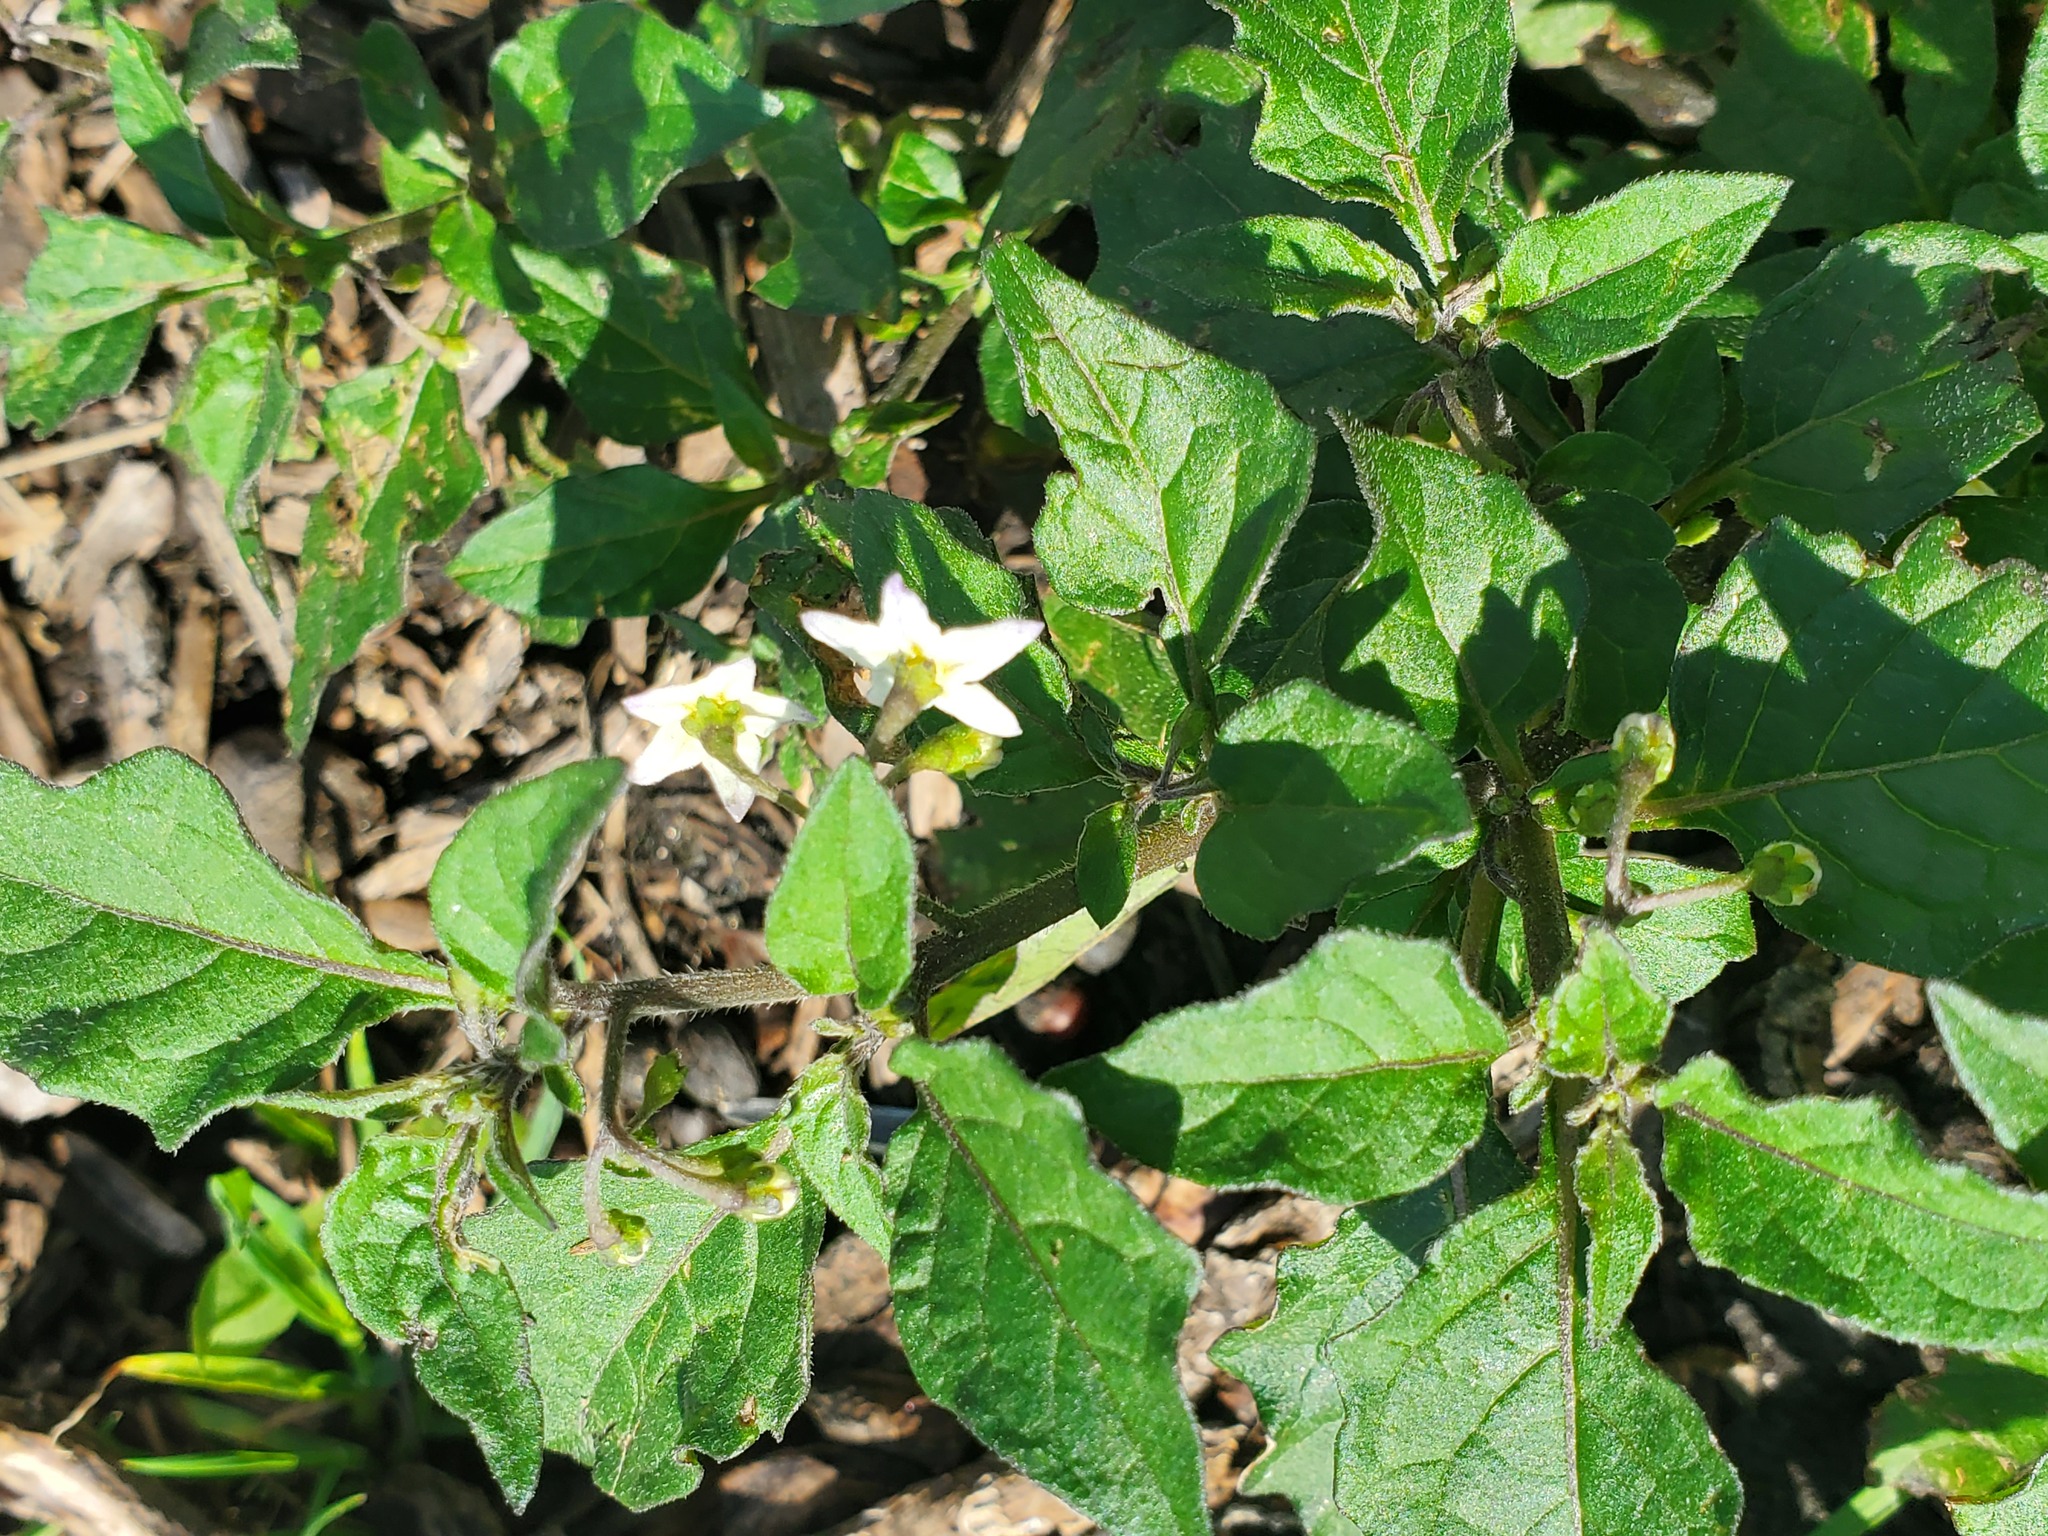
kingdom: Plantae
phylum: Tracheophyta
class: Magnoliopsida
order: Solanales
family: Solanaceae
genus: Solanum
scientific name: Solanum nigrum
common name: Black nightshade
